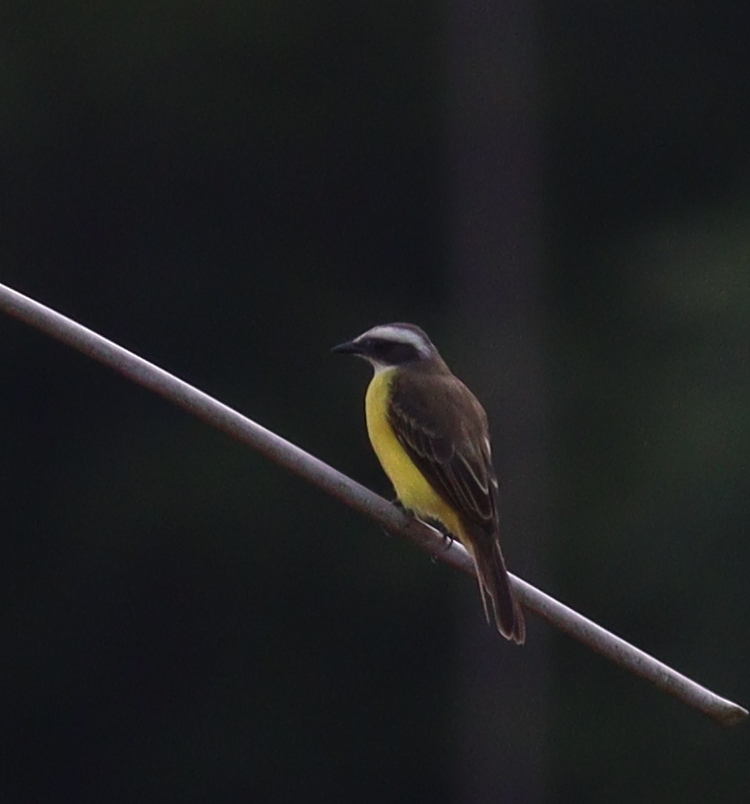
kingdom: Animalia
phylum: Chordata
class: Aves
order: Passeriformes
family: Tyrannidae
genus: Myiozetetes
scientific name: Myiozetetes similis
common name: Social flycatcher
